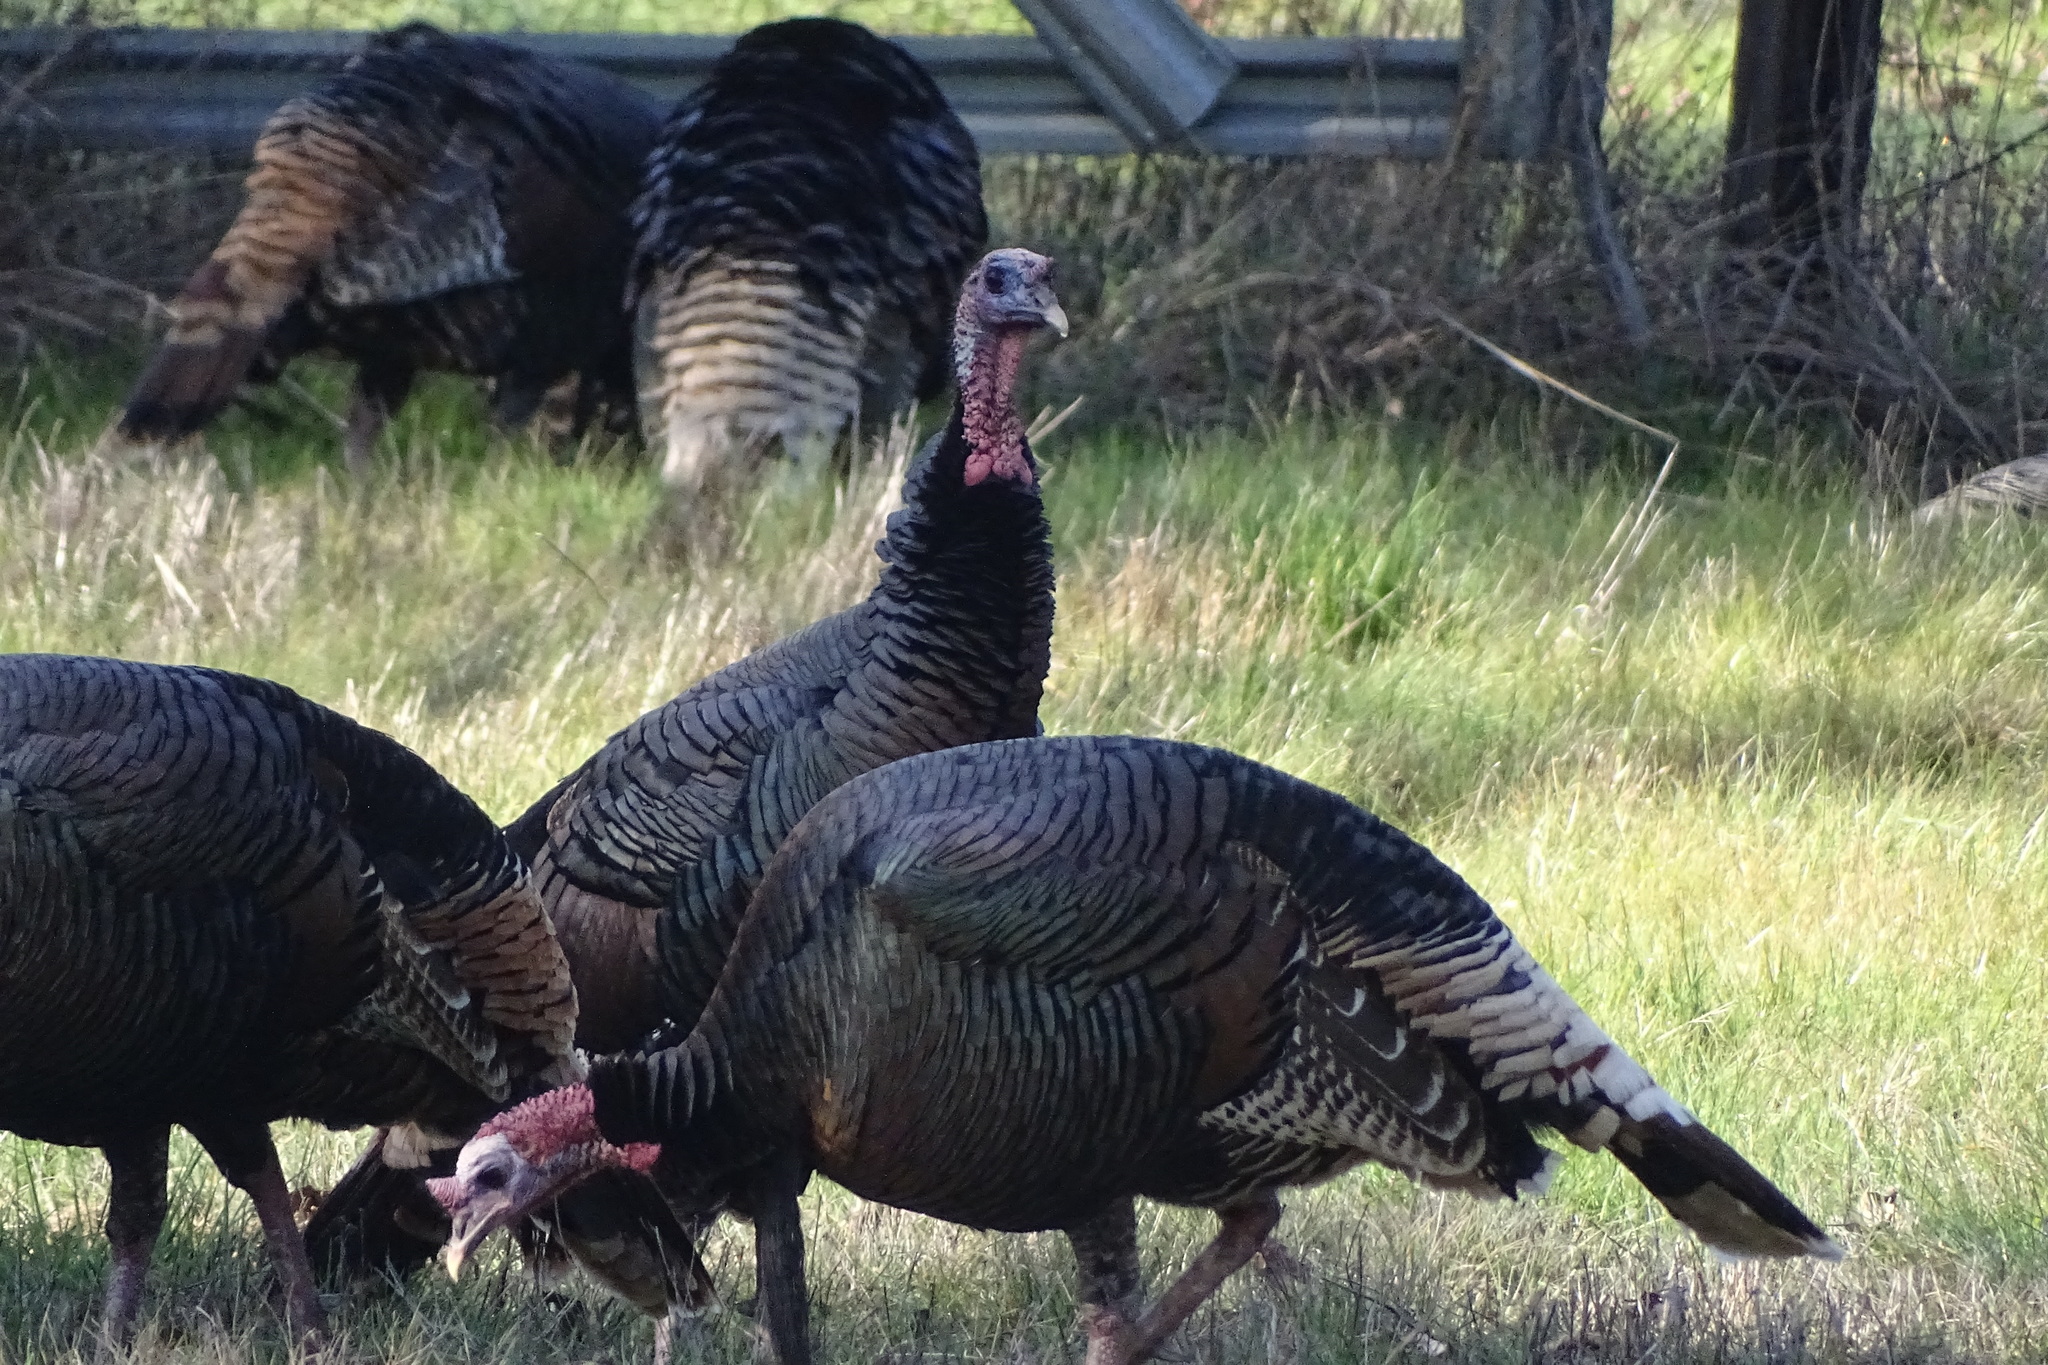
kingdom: Animalia
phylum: Chordata
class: Aves
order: Galliformes
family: Phasianidae
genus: Meleagris
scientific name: Meleagris gallopavo
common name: Wild turkey
